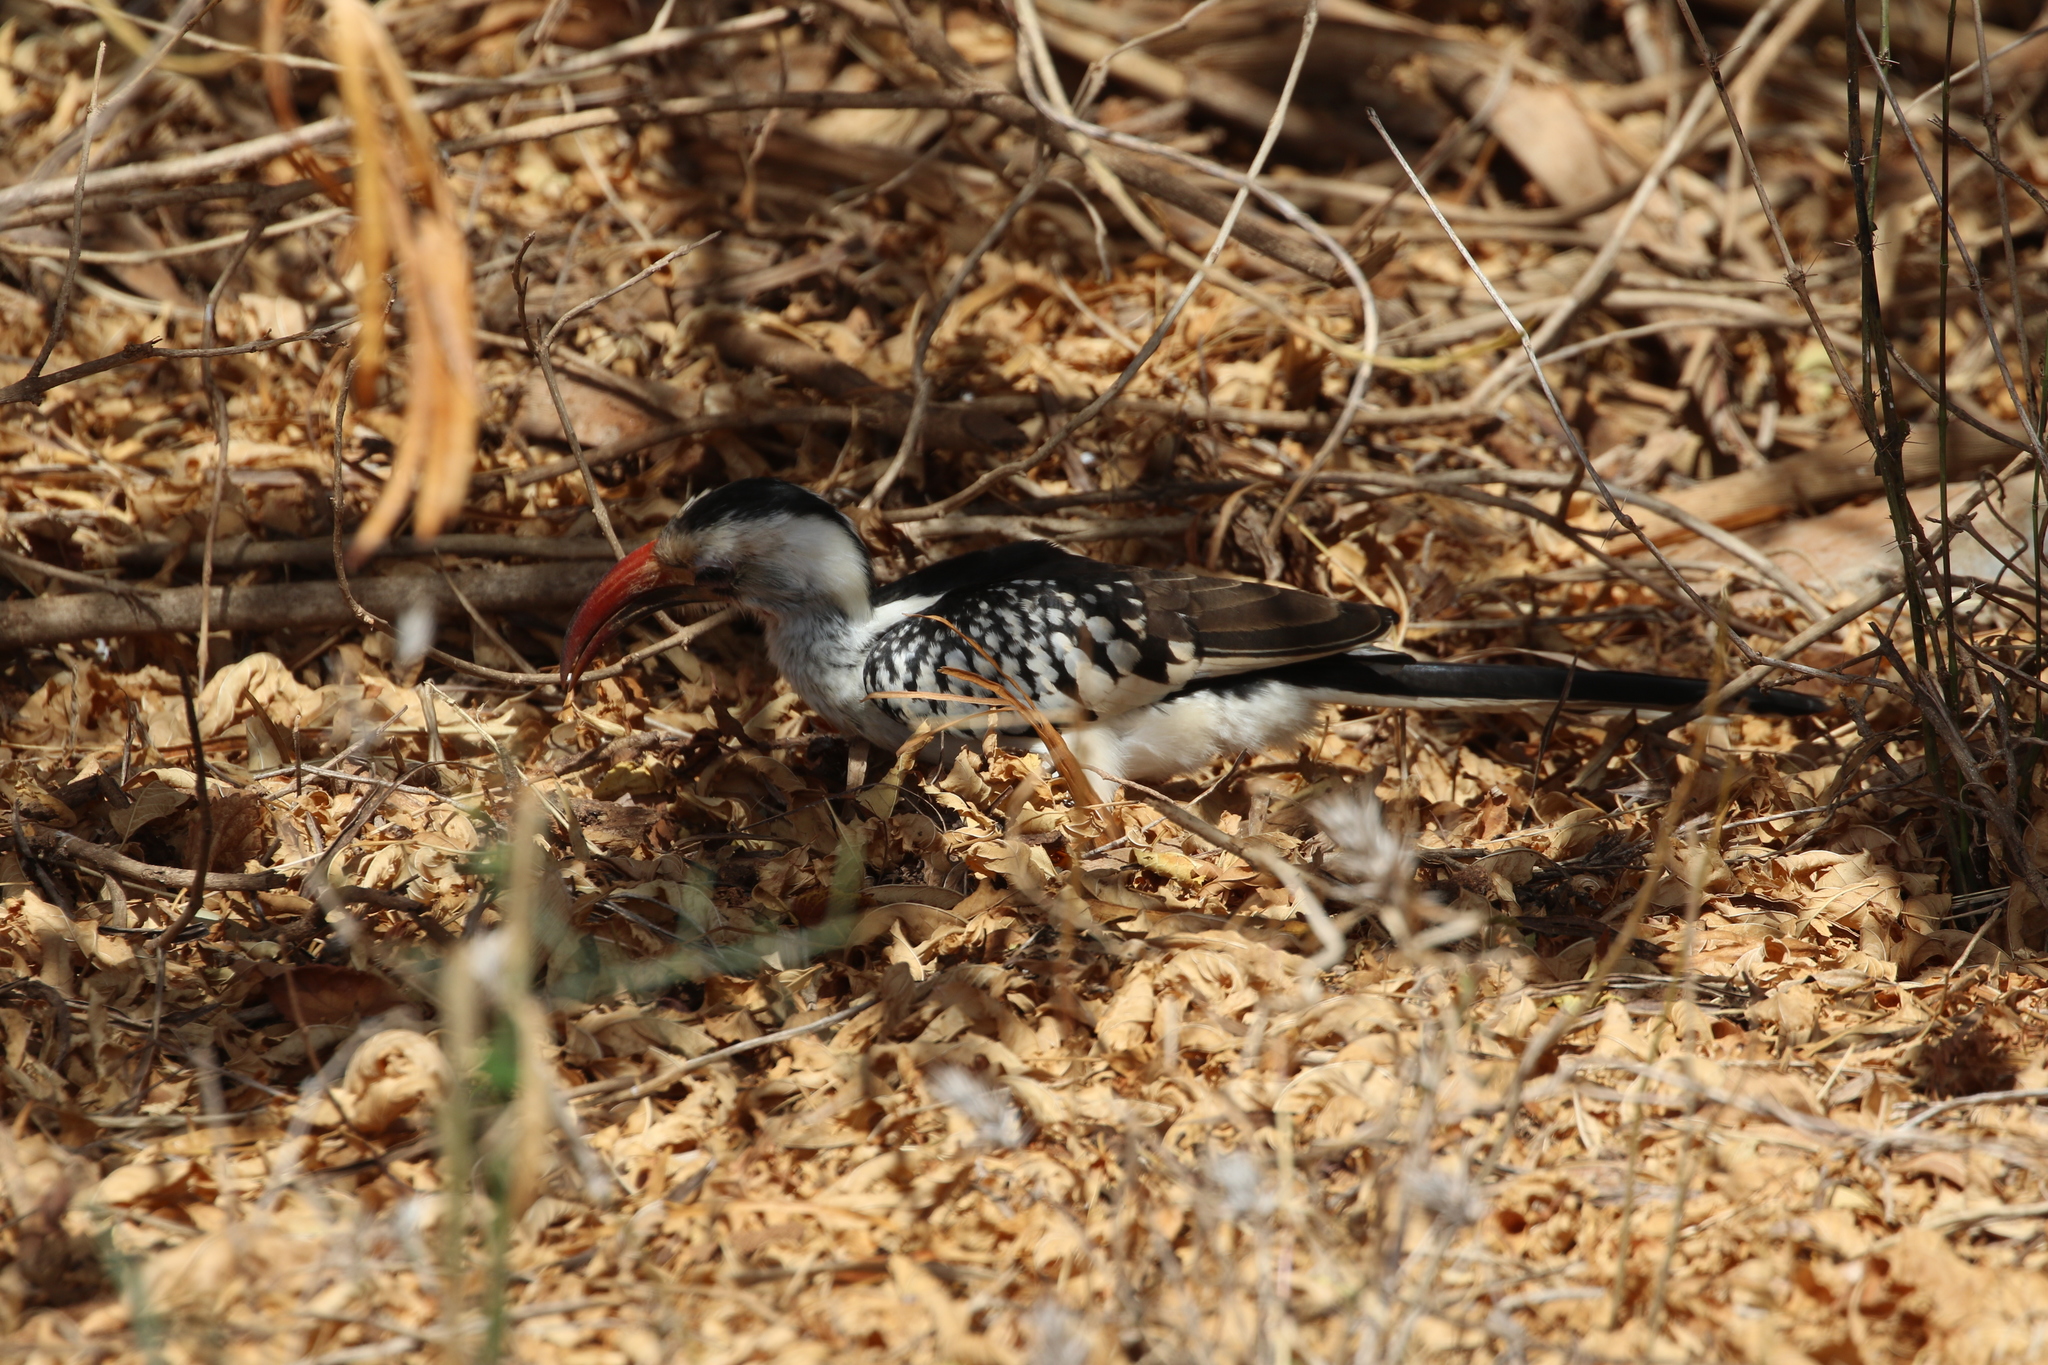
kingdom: Animalia
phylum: Chordata
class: Aves
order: Bucerotiformes
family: Bucerotidae
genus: Tockus
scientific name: Tockus erythrorhynchus
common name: Northern red-billed hornbill
